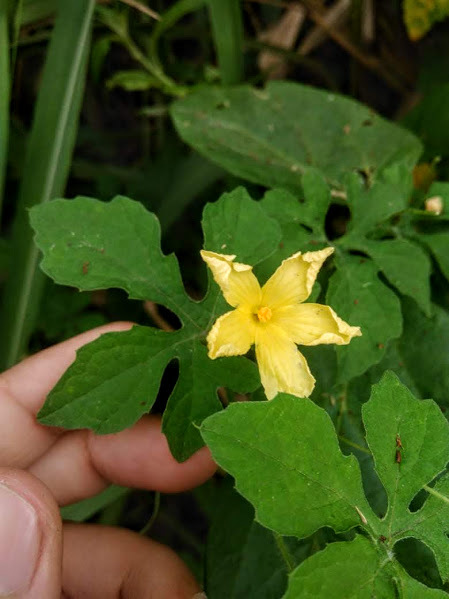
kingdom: Plantae
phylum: Tracheophyta
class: Magnoliopsida
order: Cucurbitales
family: Cucurbitaceae
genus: Momordica
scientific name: Momordica charantia
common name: Balsampear
